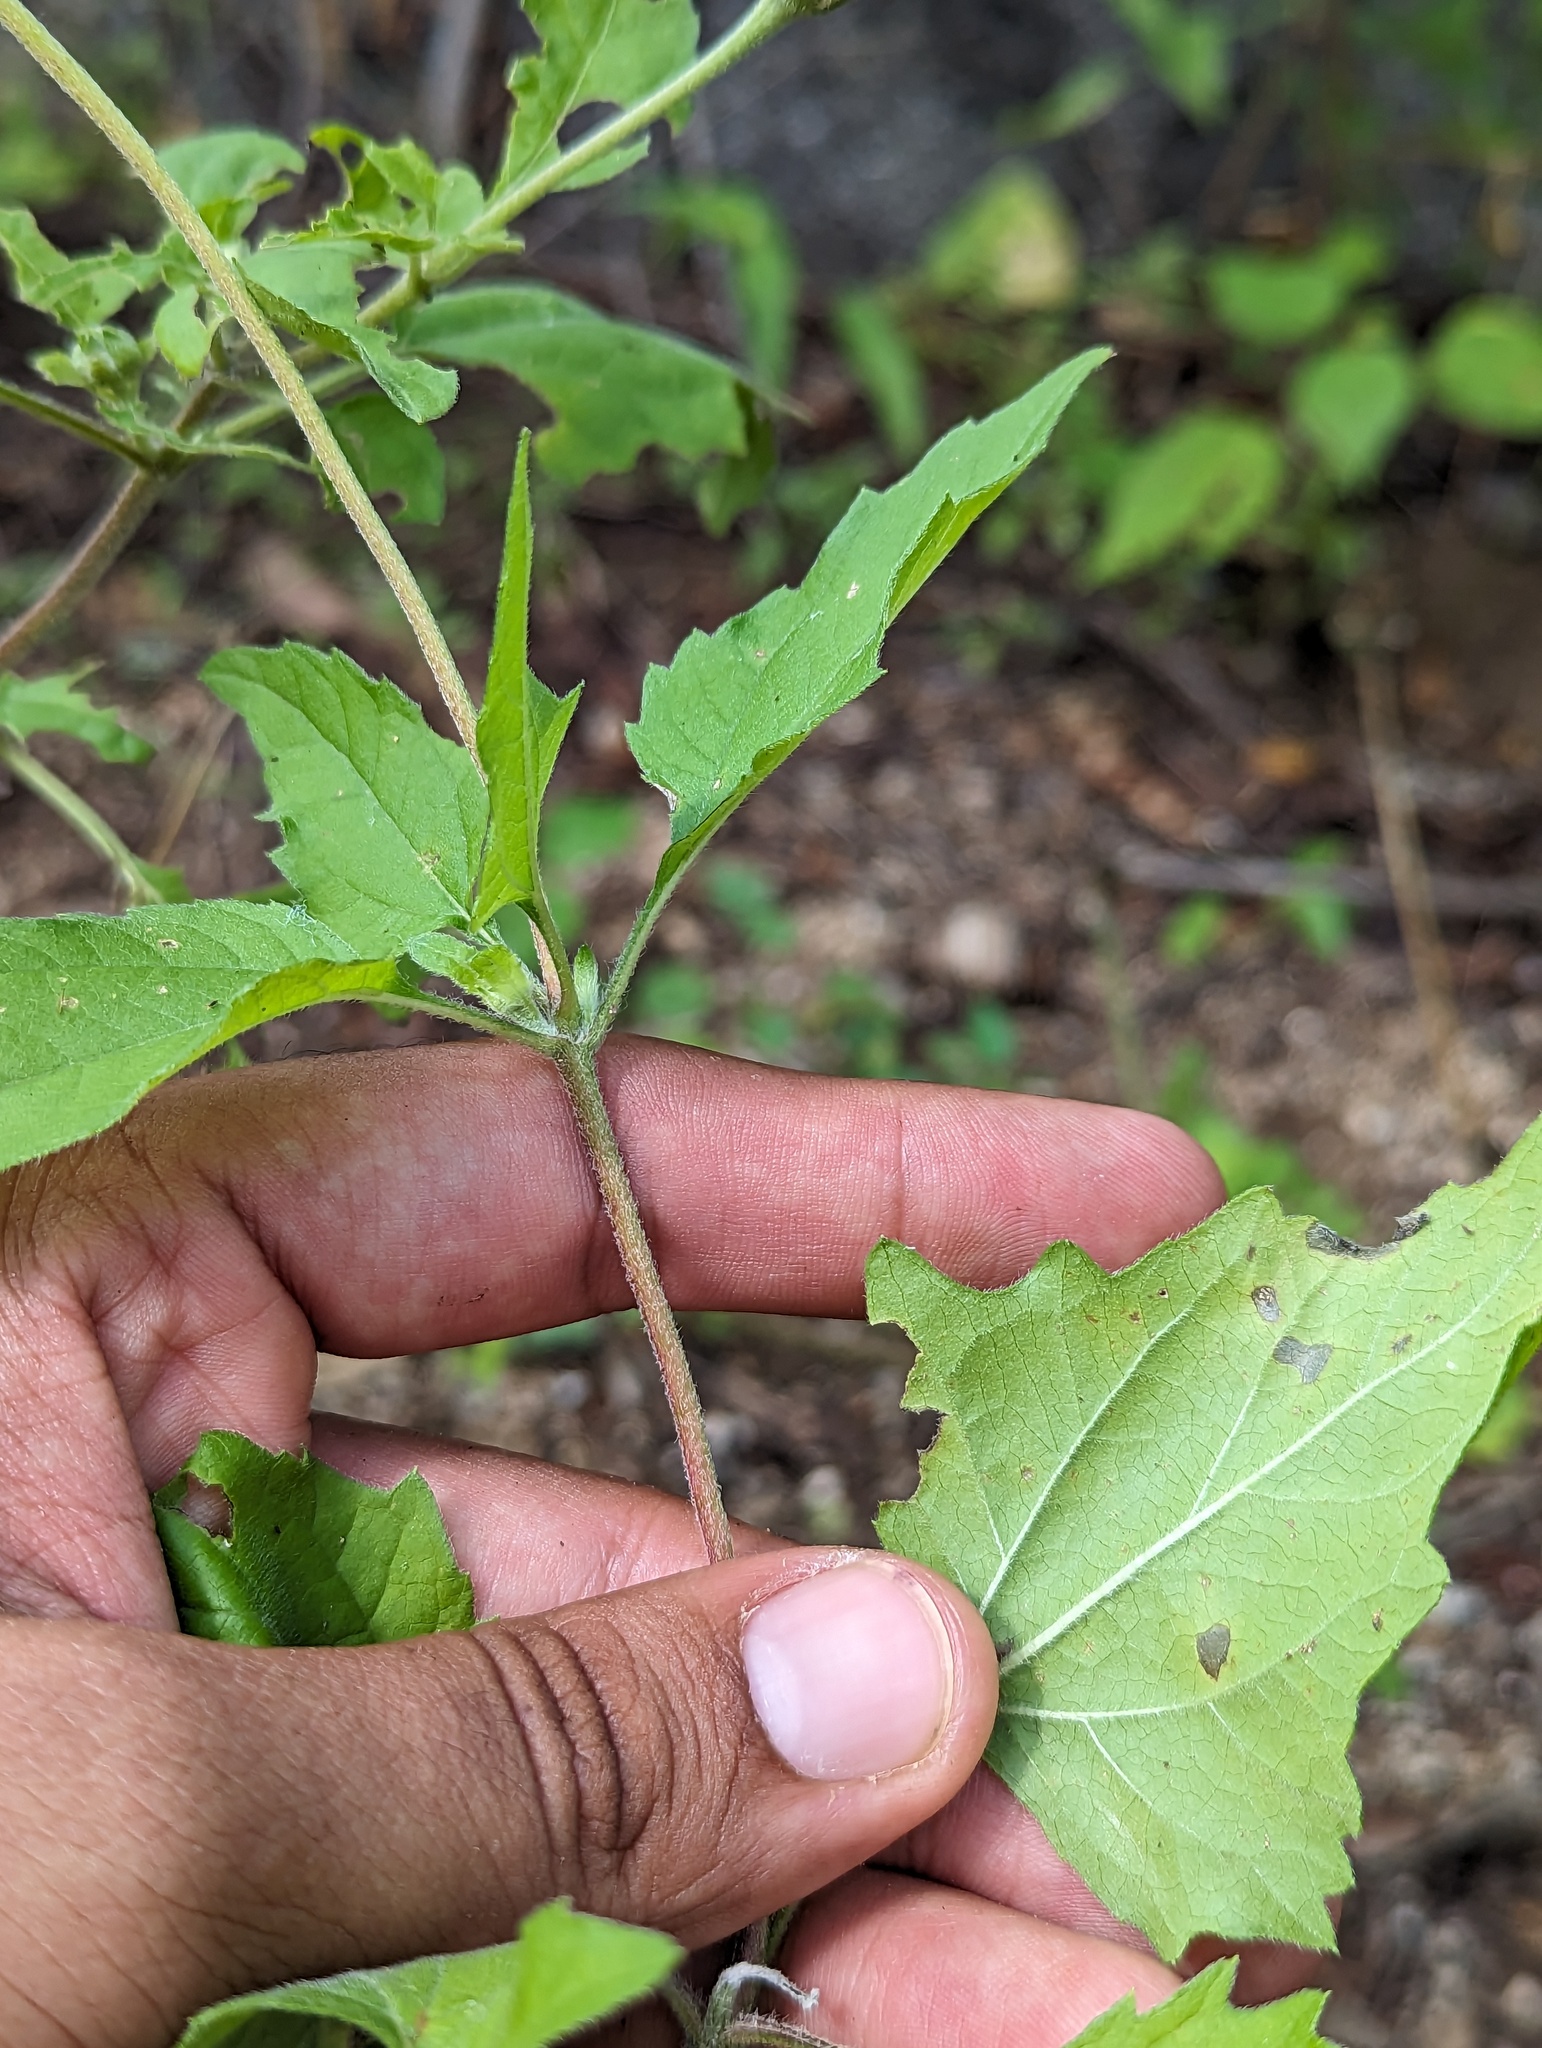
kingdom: Plantae
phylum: Tracheophyta
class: Magnoliopsida
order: Asterales
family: Asteraceae
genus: Heliopsis
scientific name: Heliopsis anomala
